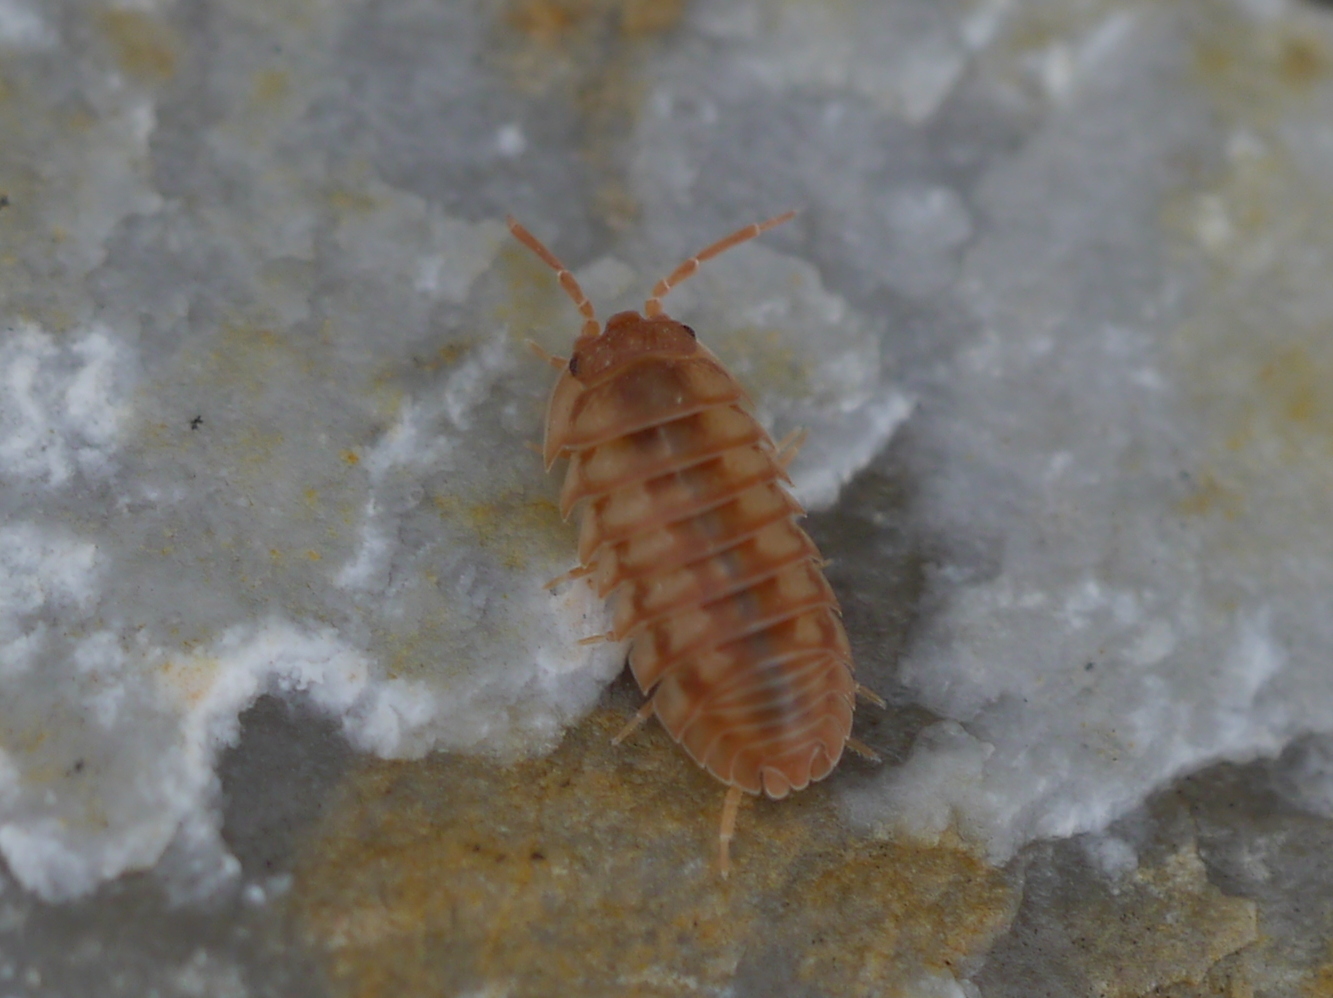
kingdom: Animalia
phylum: Arthropoda
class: Malacostraca
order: Isopoda
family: Armadillidiidae
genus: Armadillidium
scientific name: Armadillidium nasatum
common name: Isopod
